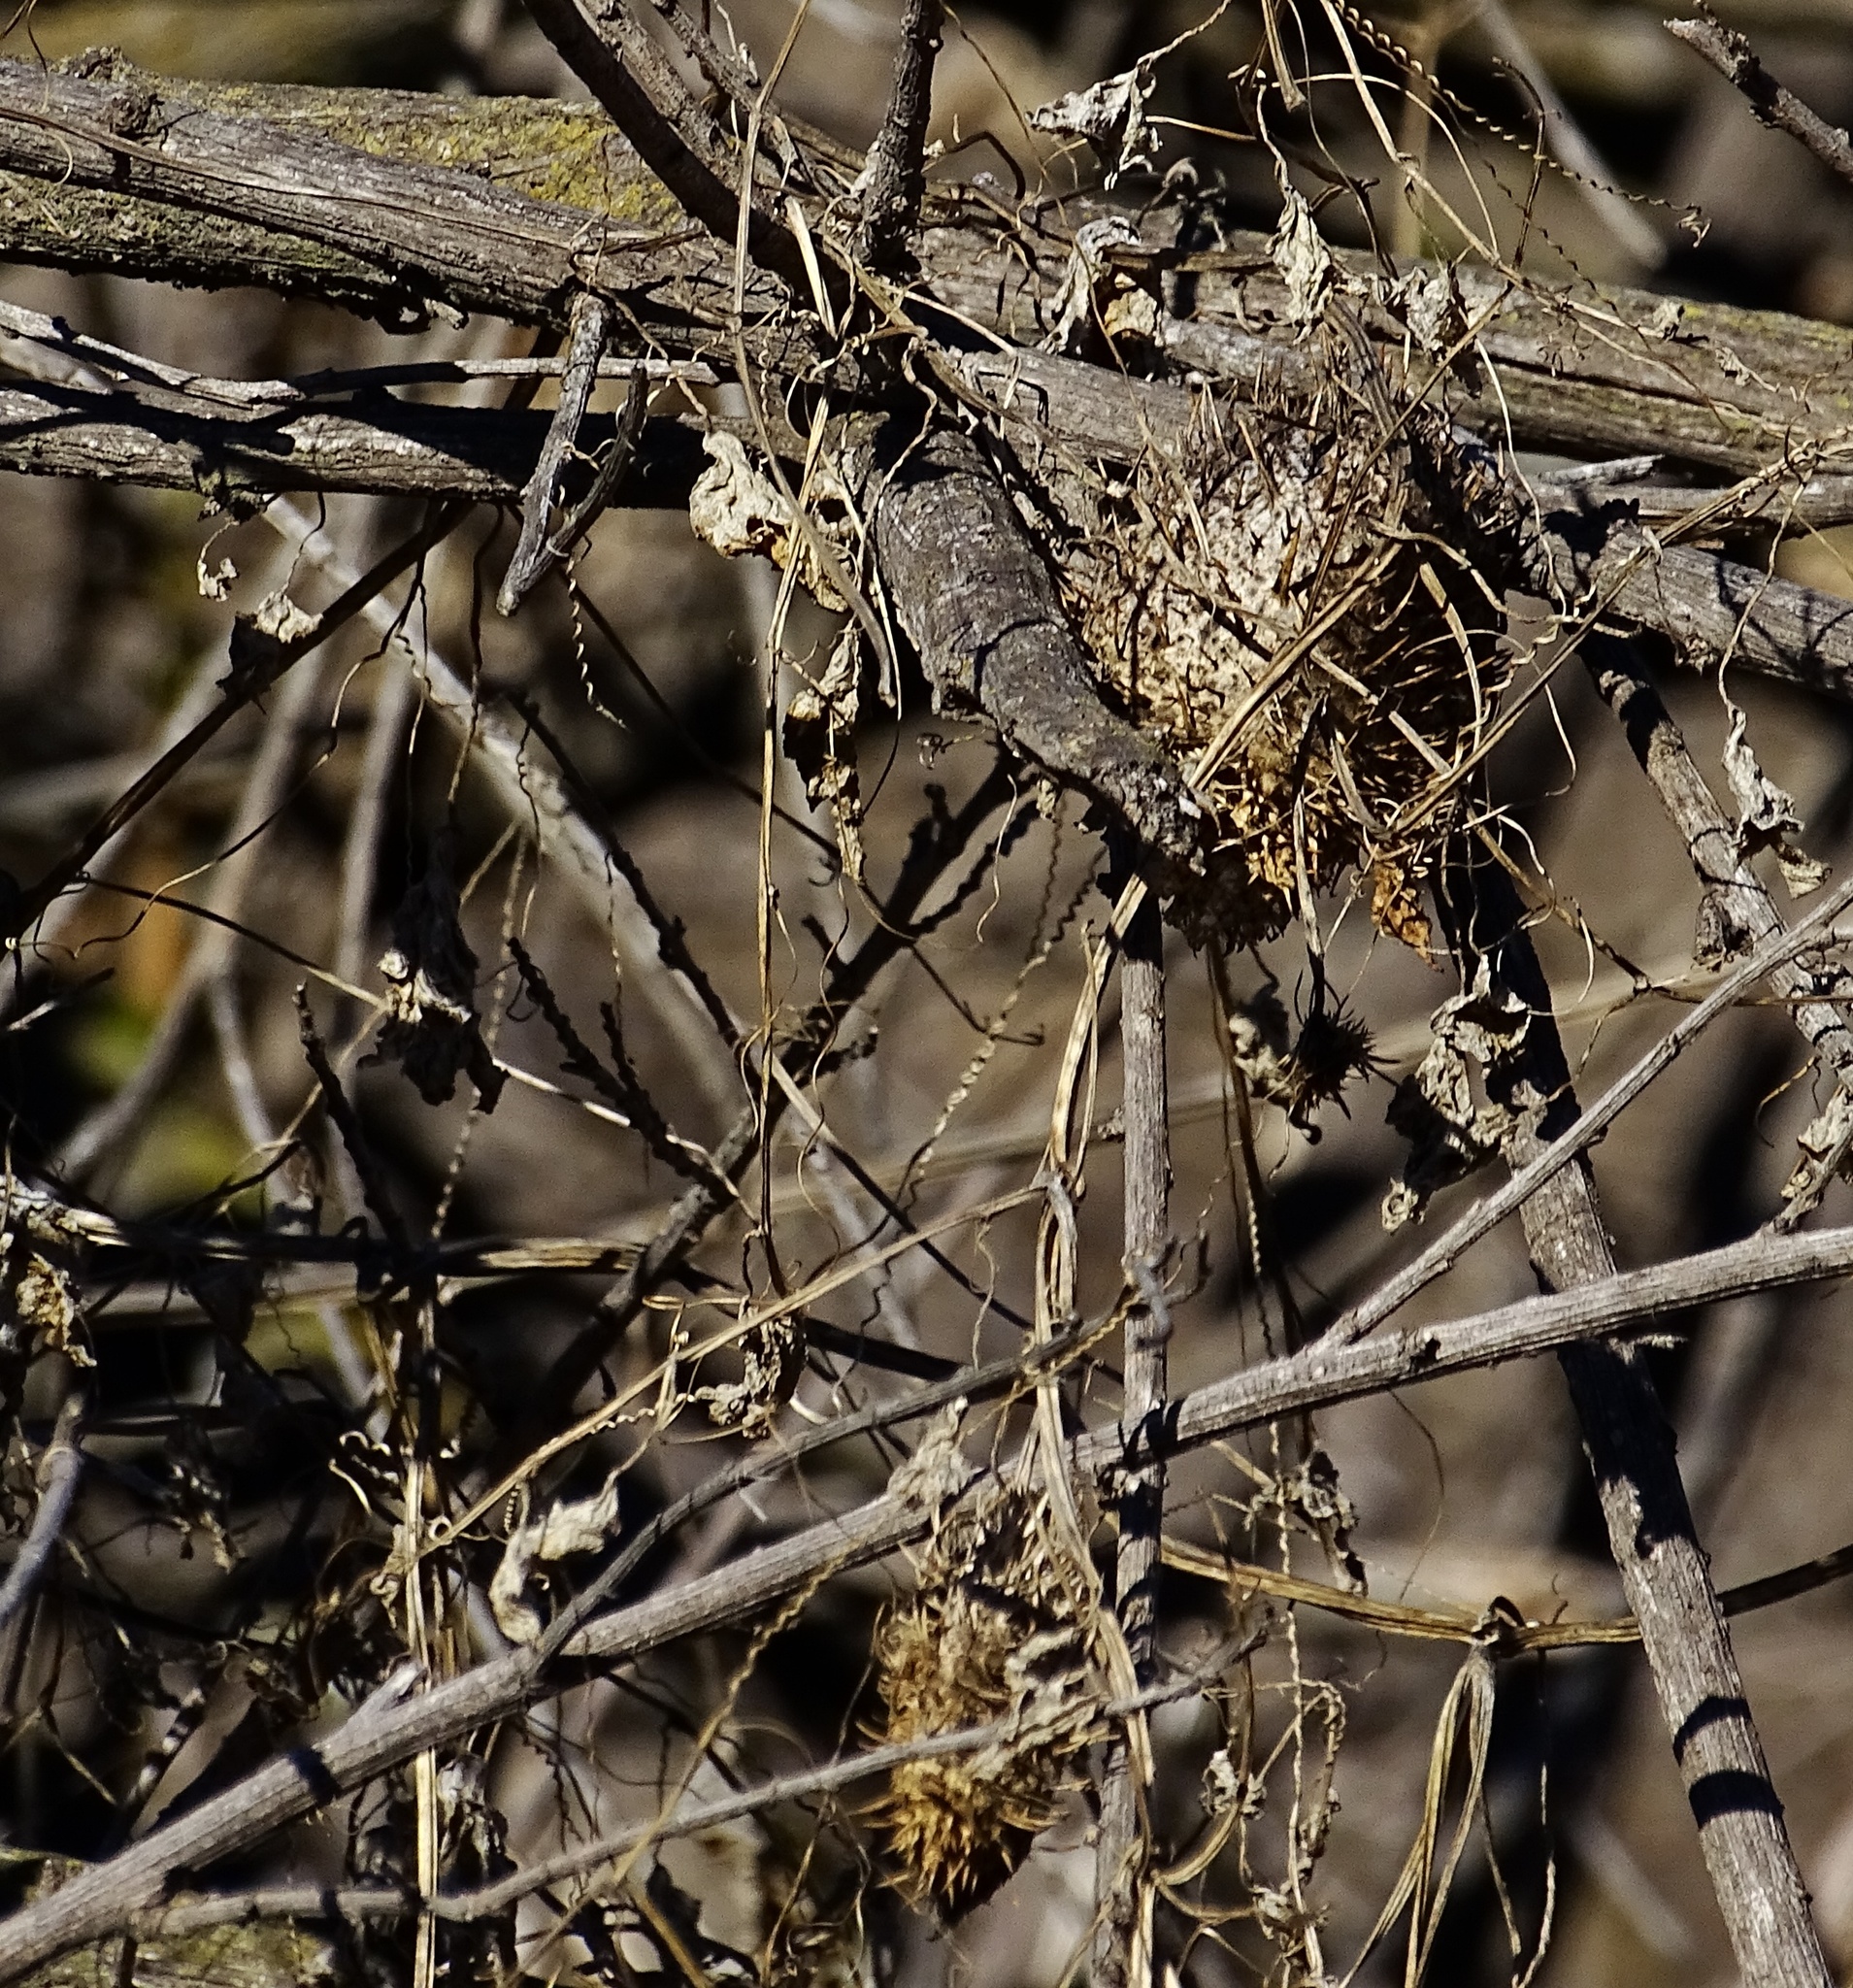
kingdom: Plantae
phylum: Tracheophyta
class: Magnoliopsida
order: Cucurbitales
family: Cucurbitaceae
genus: Marah
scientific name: Marah macrocarpa
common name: Cucamonga manroot
